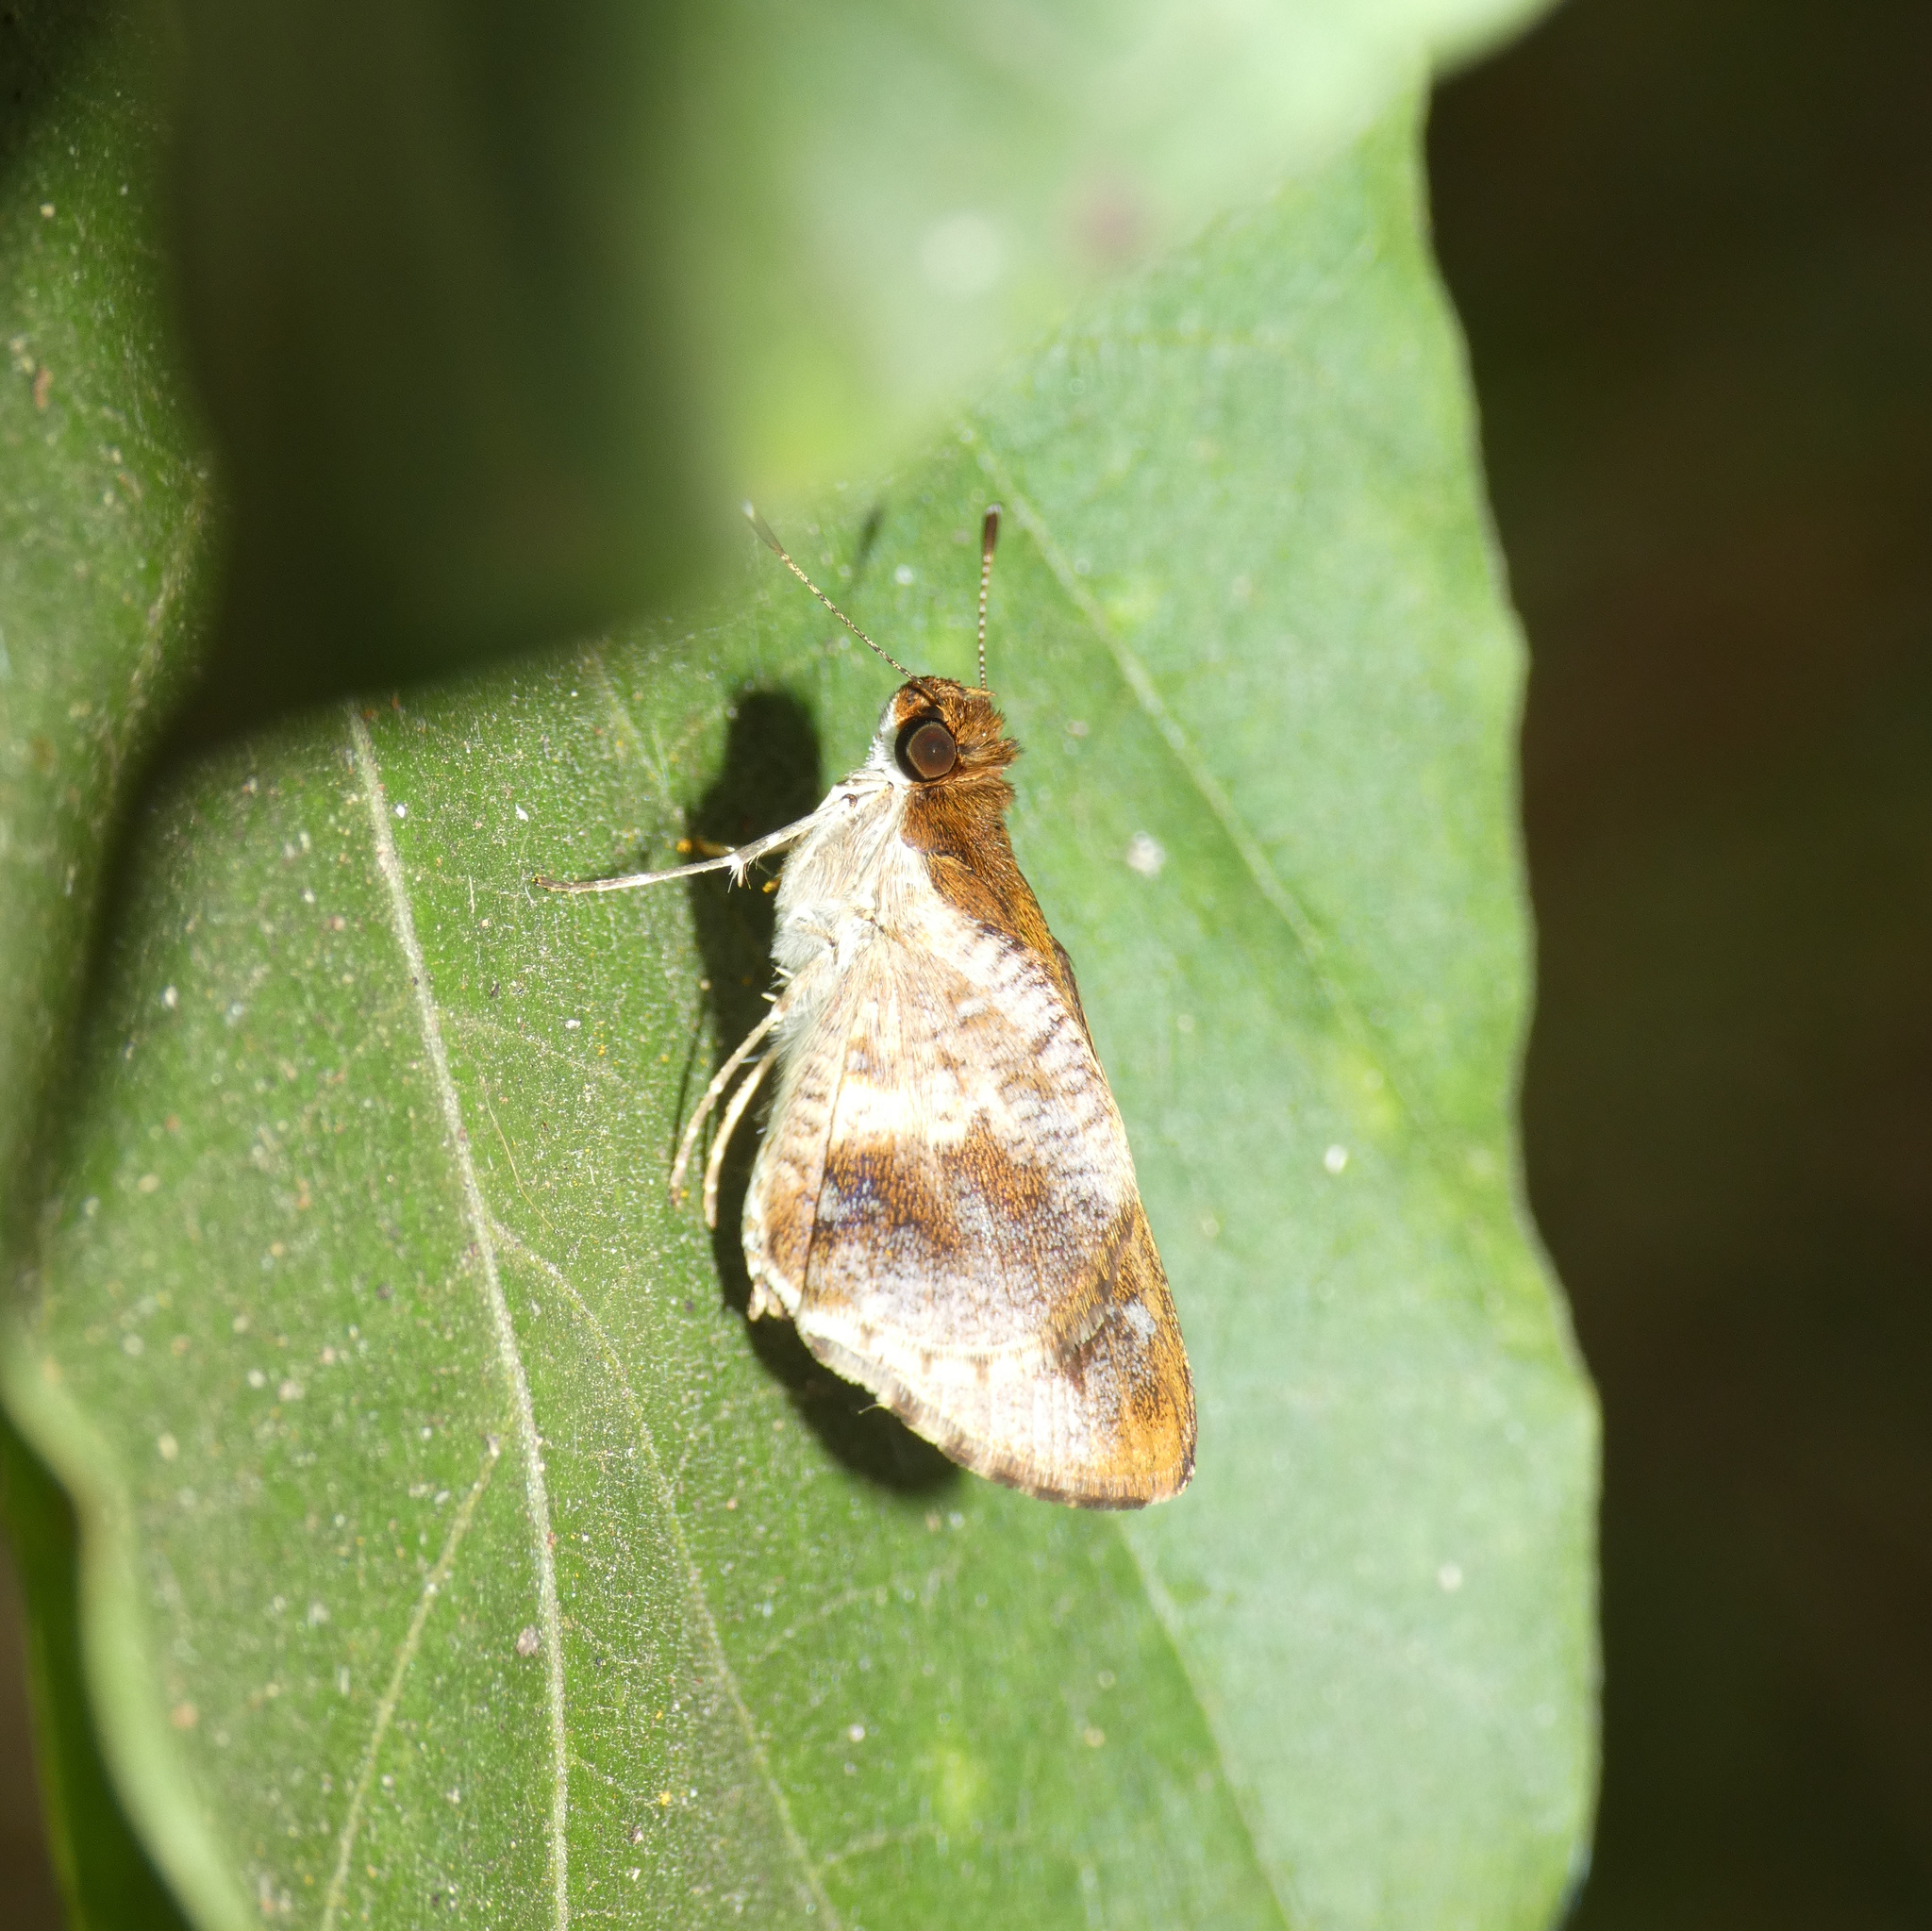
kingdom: Animalia
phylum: Arthropoda
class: Insecta
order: Lepidoptera
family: Hesperiidae
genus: Acleros
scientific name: Acleros mackenii
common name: Shade dart
